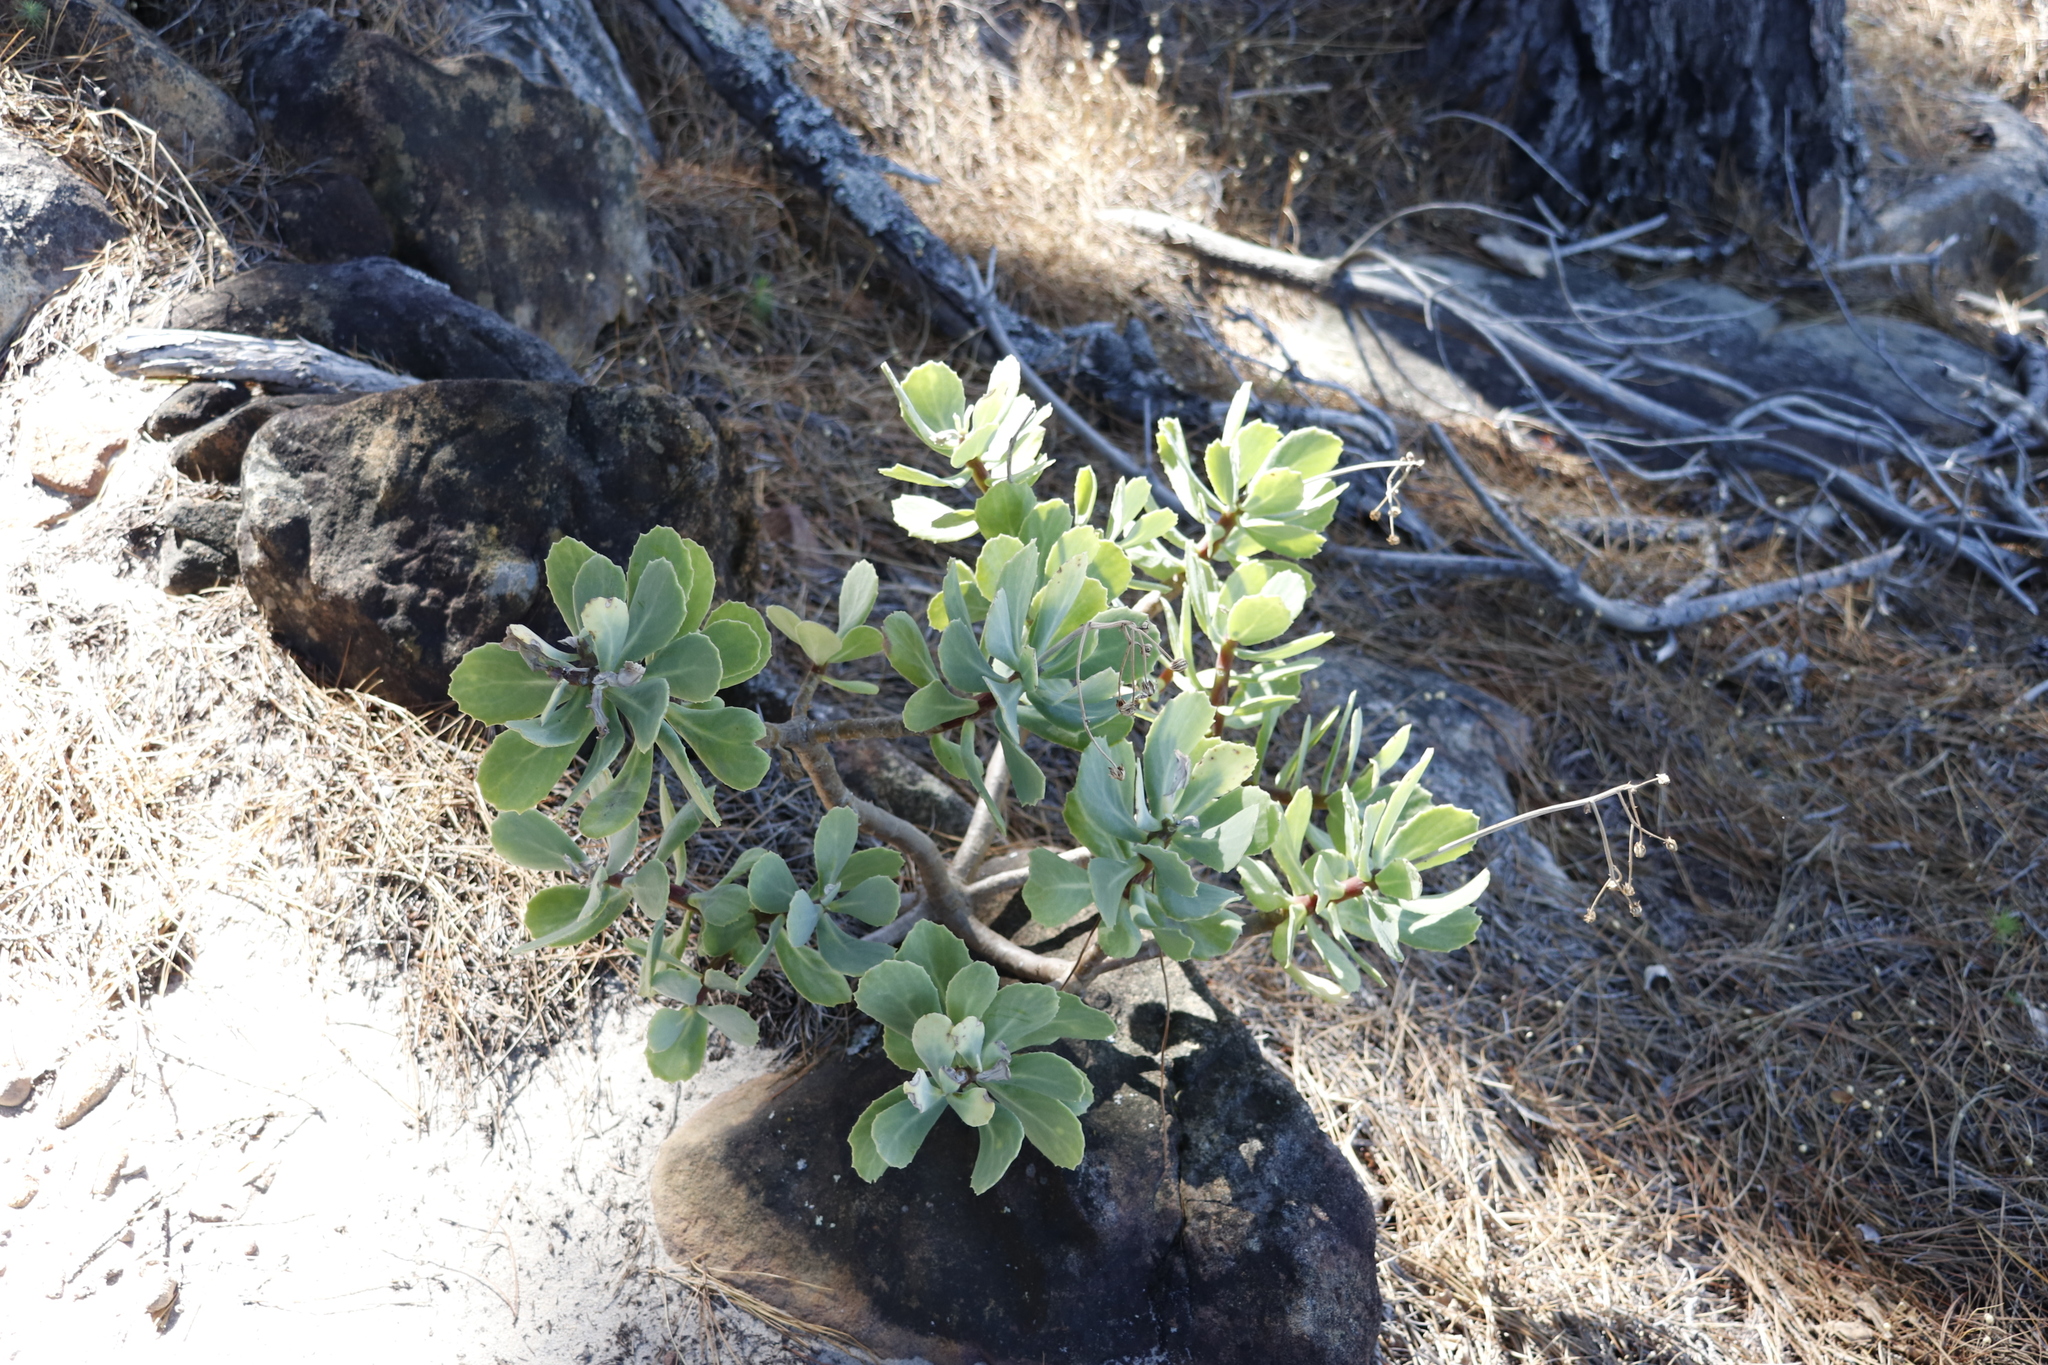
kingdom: Plantae
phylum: Tracheophyta
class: Magnoliopsida
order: Asterales
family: Asteraceae
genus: Othonna
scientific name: Othonna dentata
